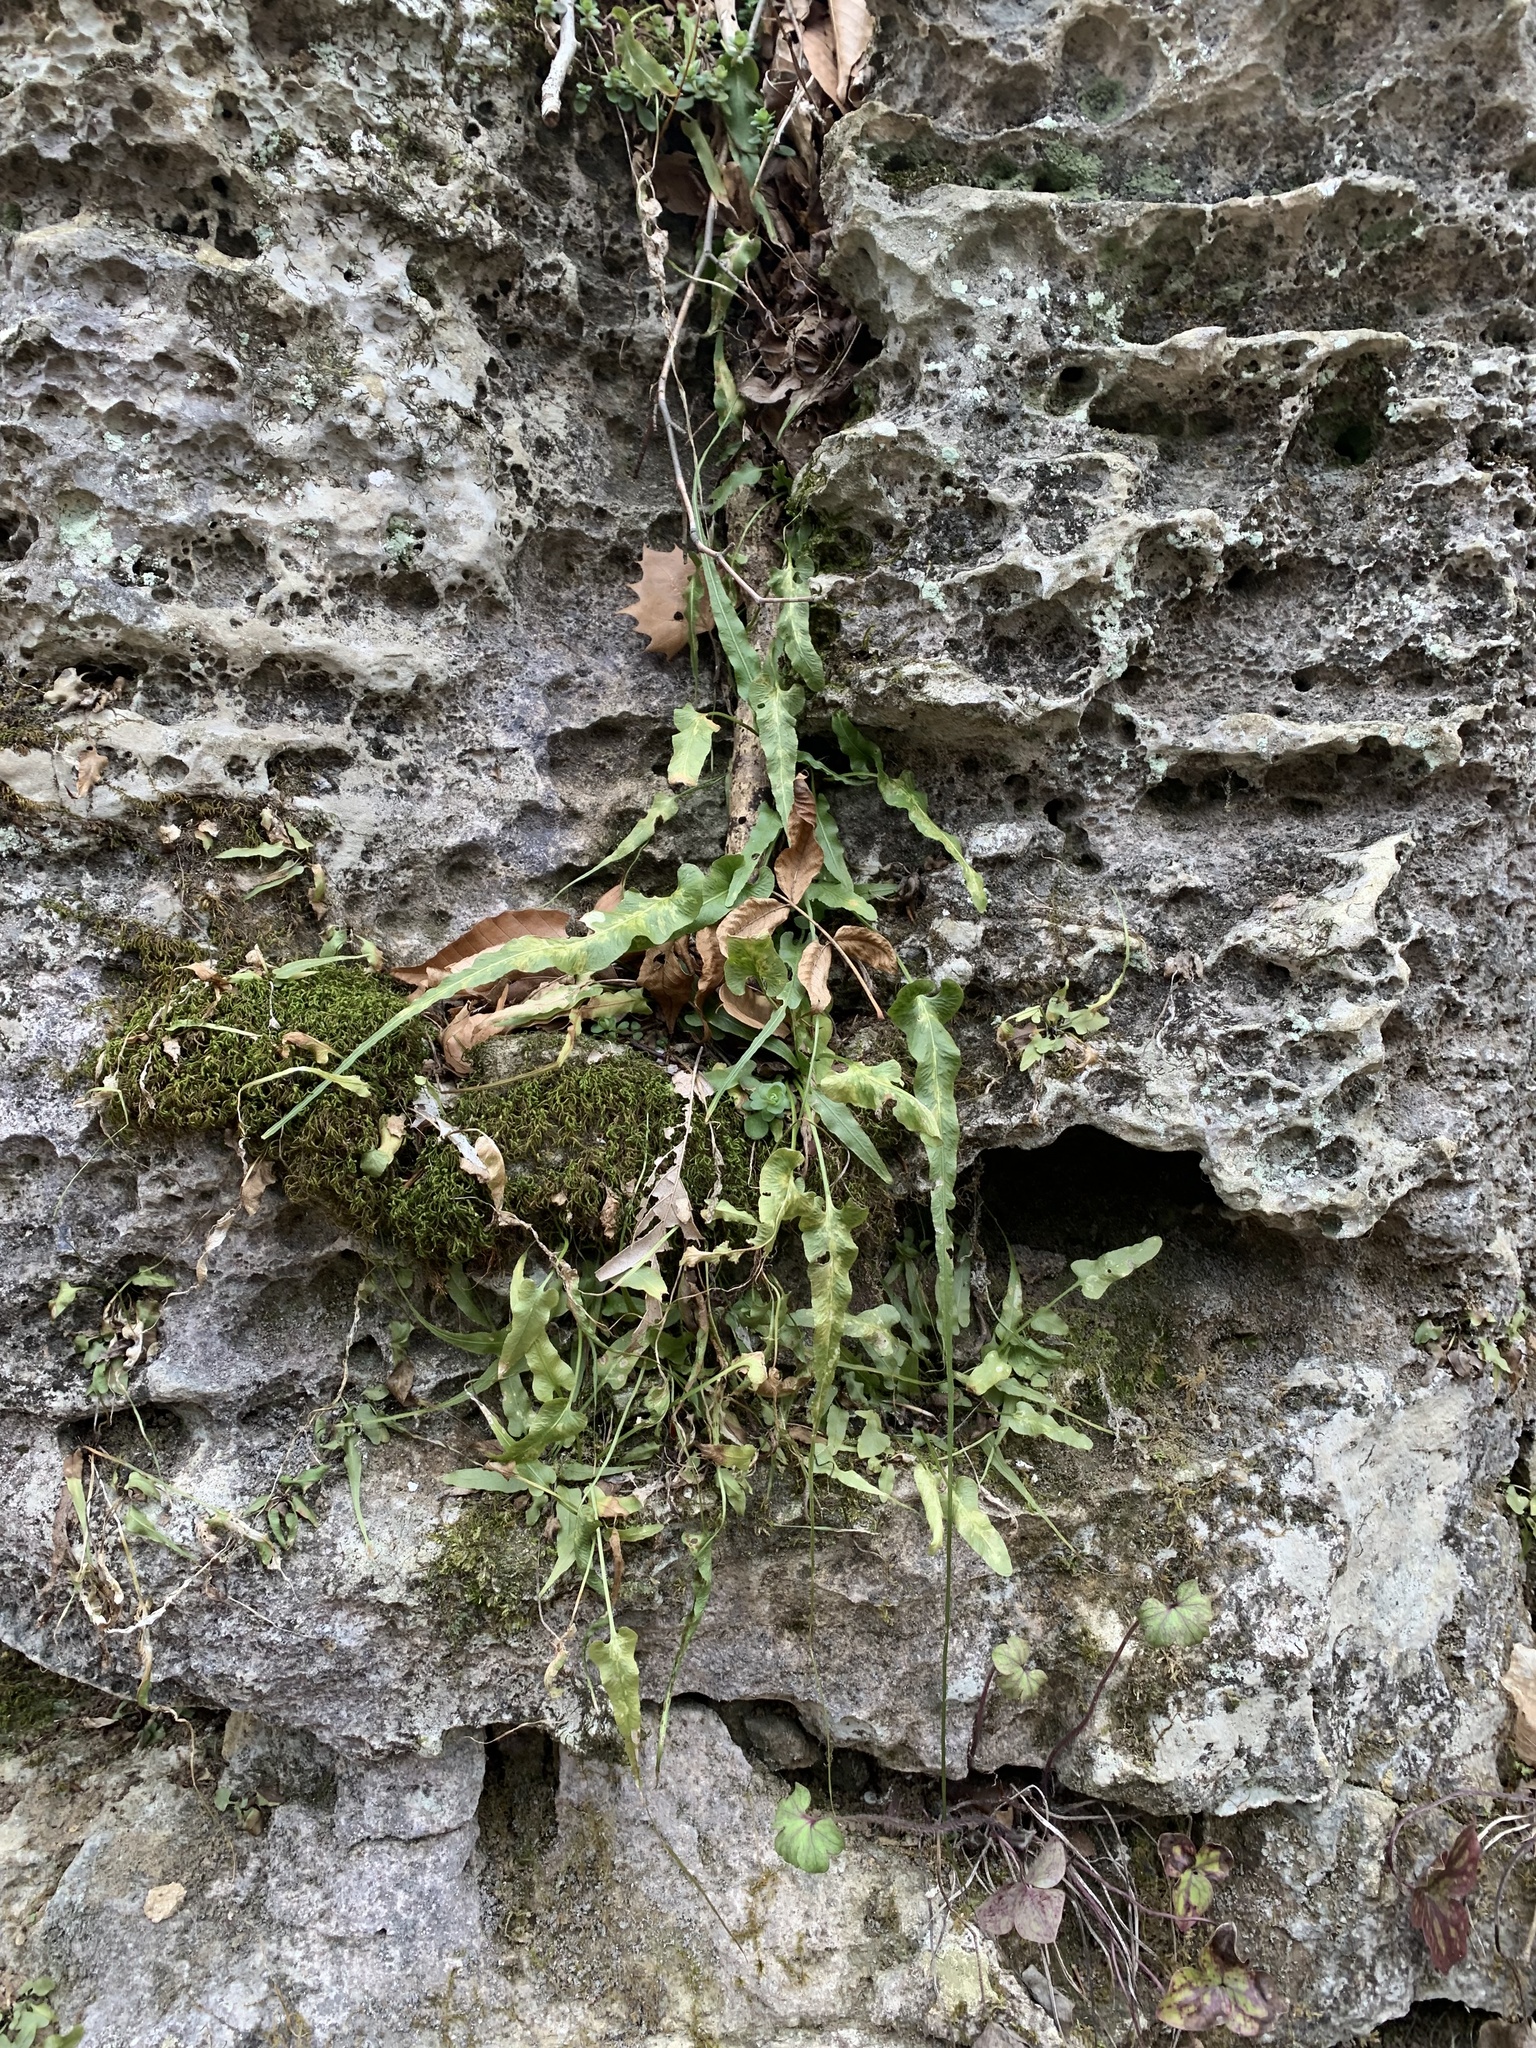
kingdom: Plantae
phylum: Tracheophyta
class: Polypodiopsida
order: Polypodiales
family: Aspleniaceae
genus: Asplenium
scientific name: Asplenium rhizophyllum
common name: Walking fern
